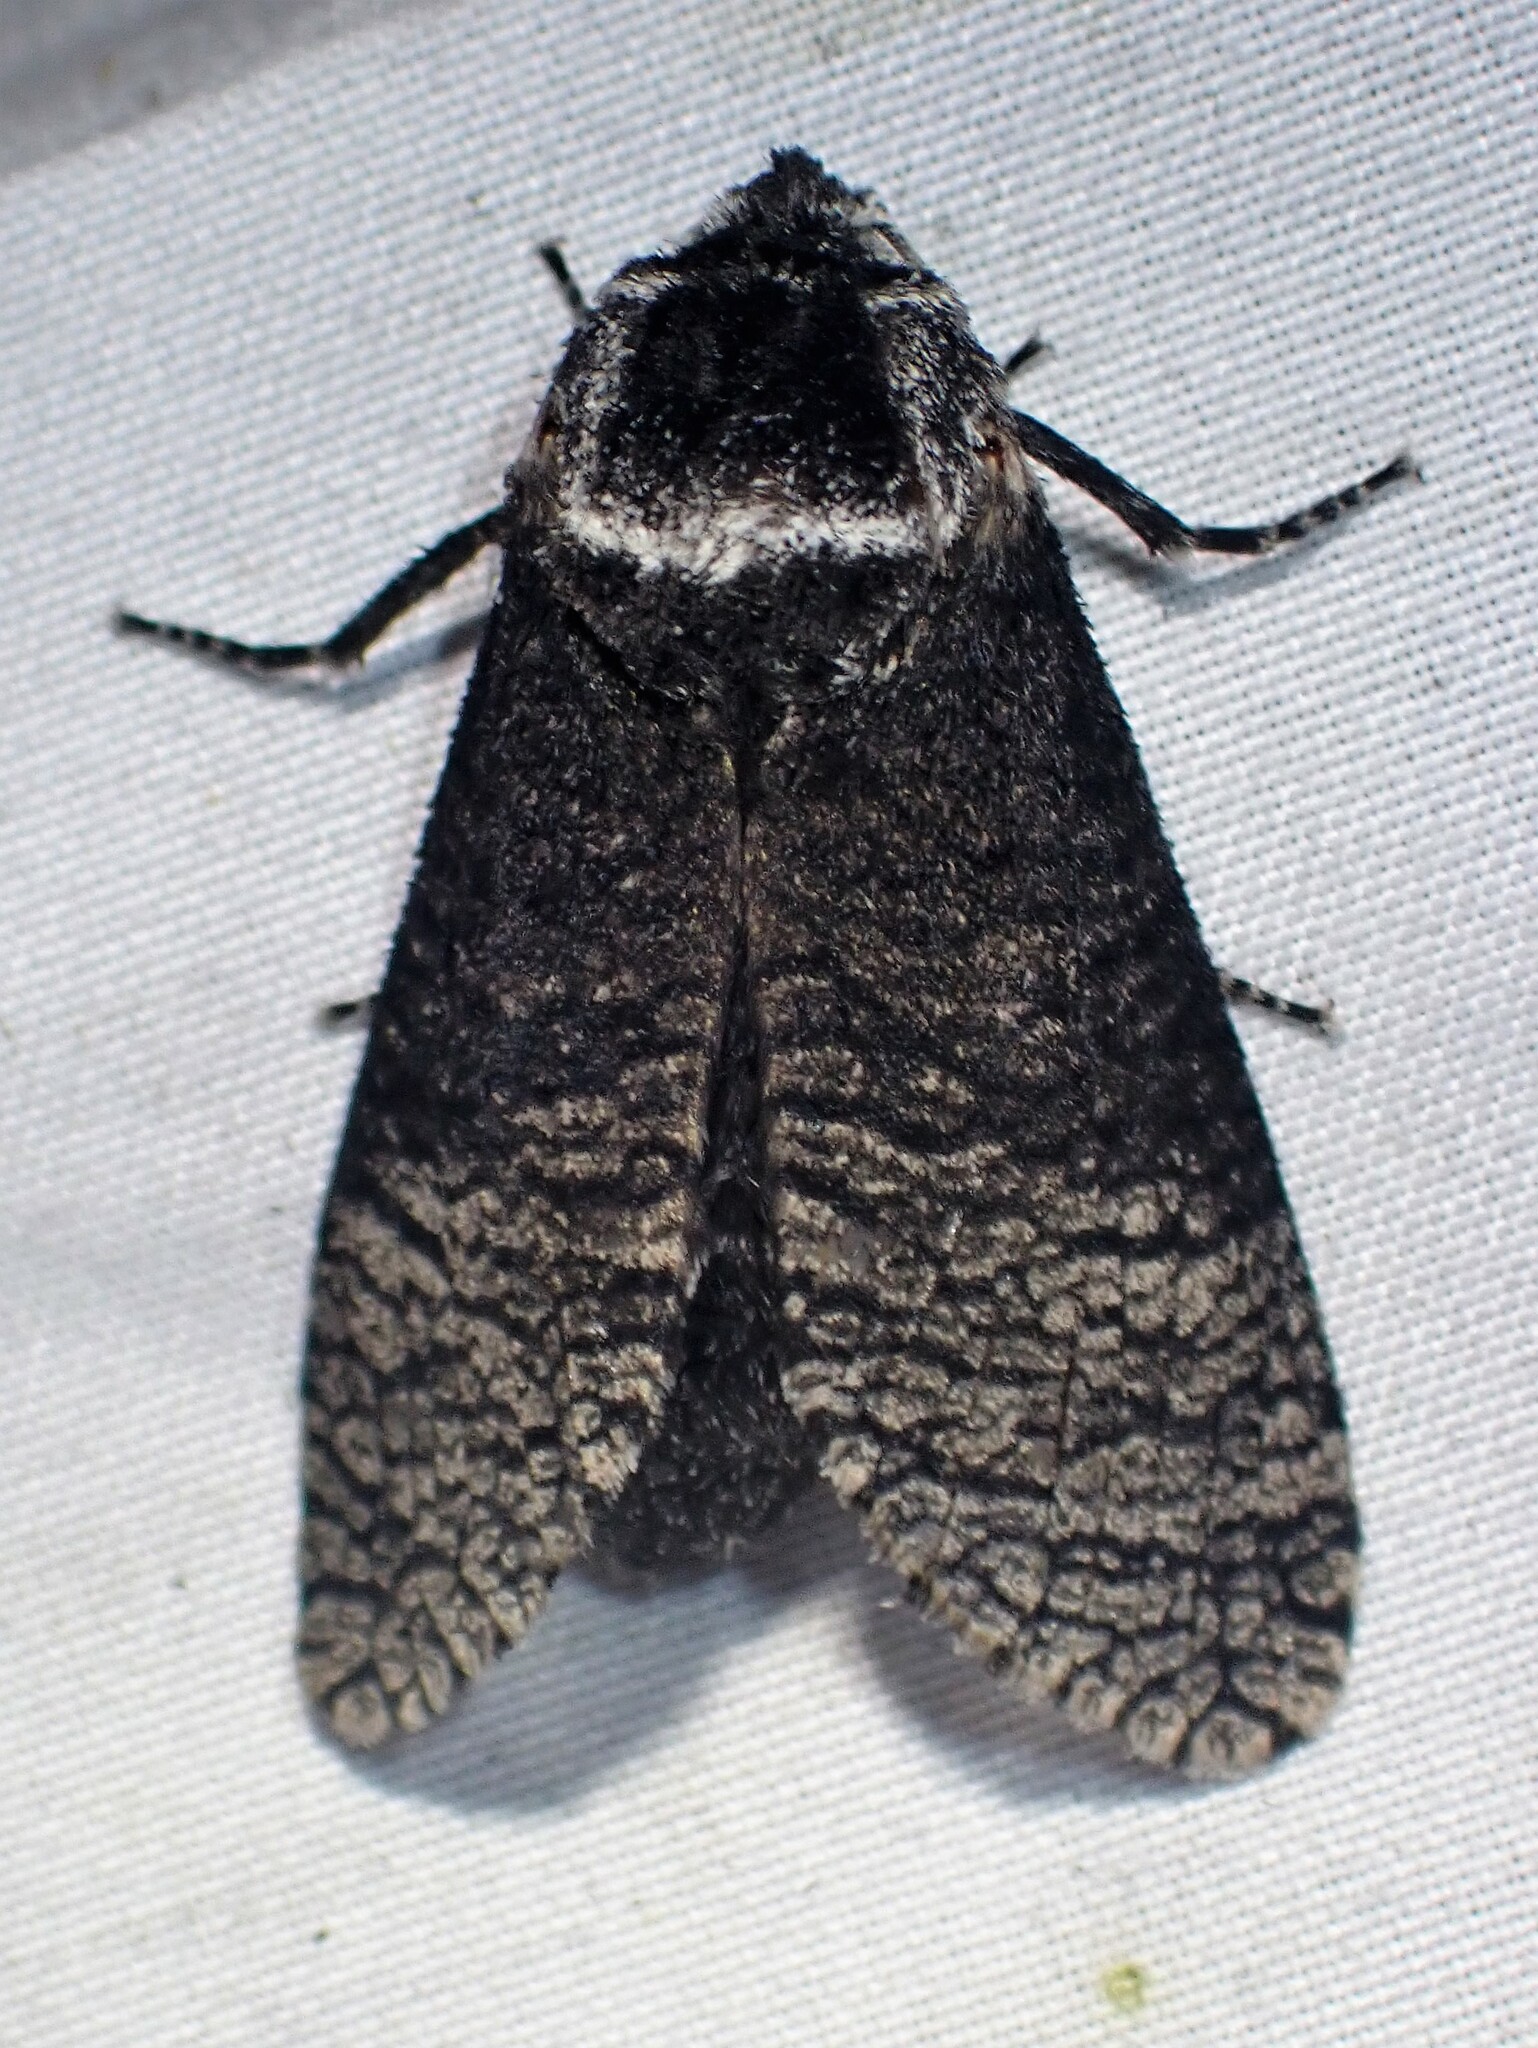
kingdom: Animalia
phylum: Arthropoda
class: Insecta
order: Lepidoptera
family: Cossidae
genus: Acossus
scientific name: Acossus centerensis
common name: Poplar carpenterworm moth
